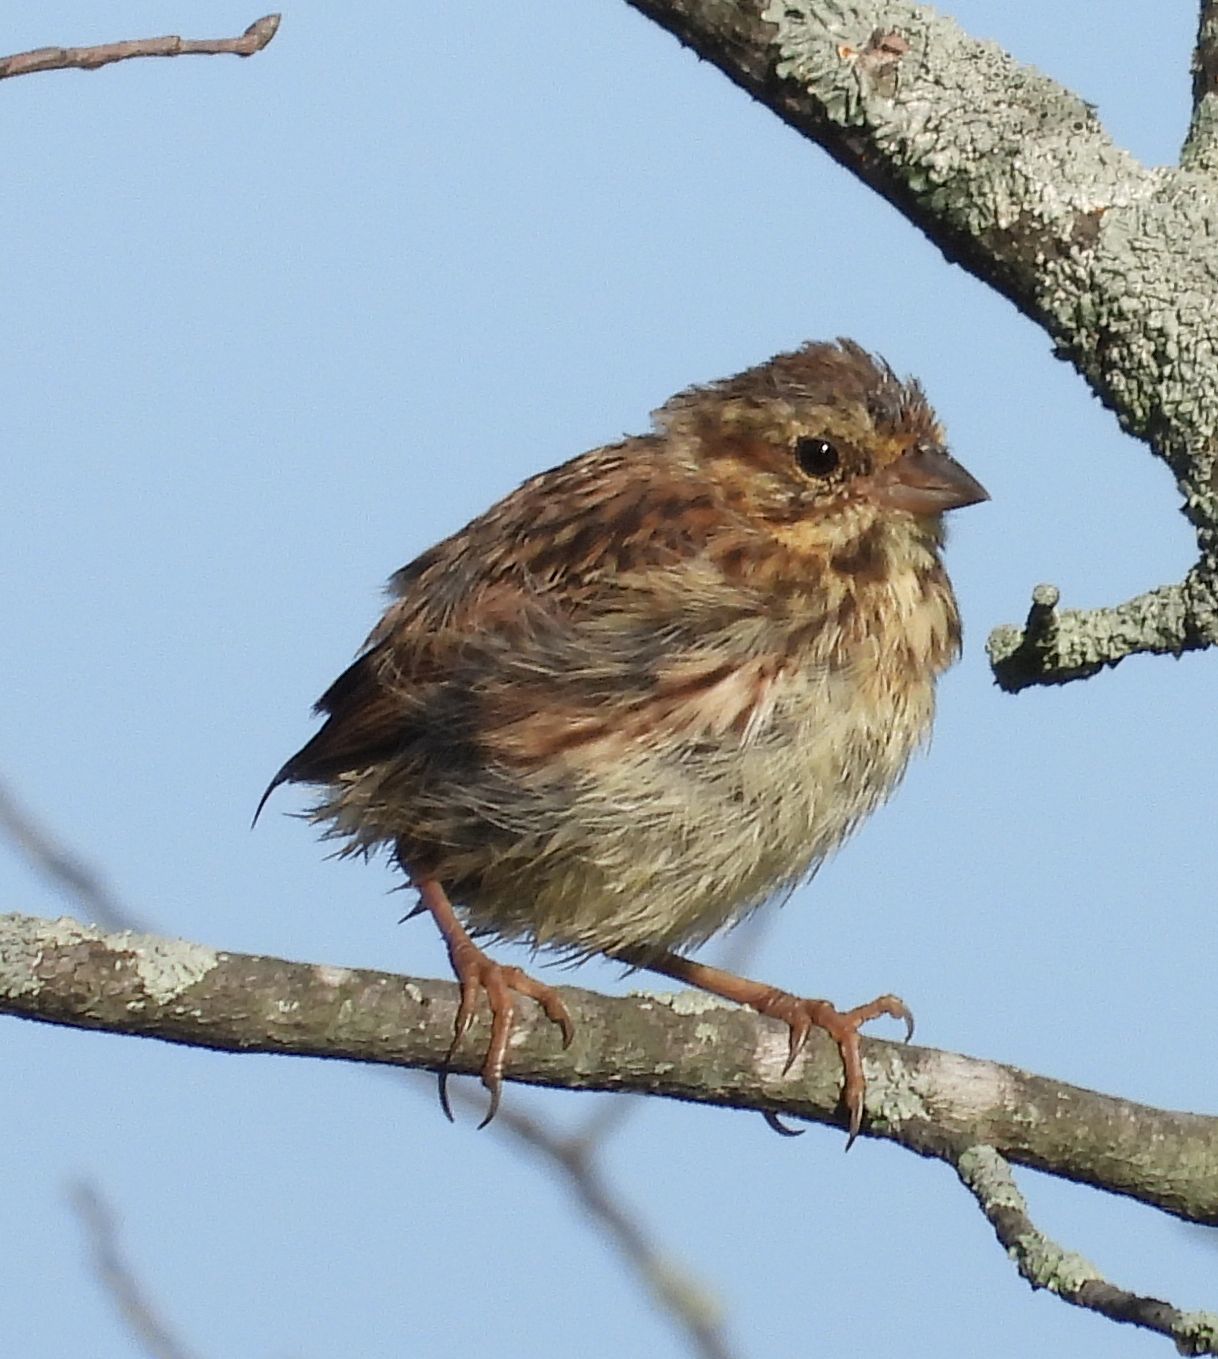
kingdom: Animalia
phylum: Chordata
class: Aves
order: Passeriformes
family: Passerellidae
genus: Melospiza
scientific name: Melospiza melodia
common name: Song sparrow
